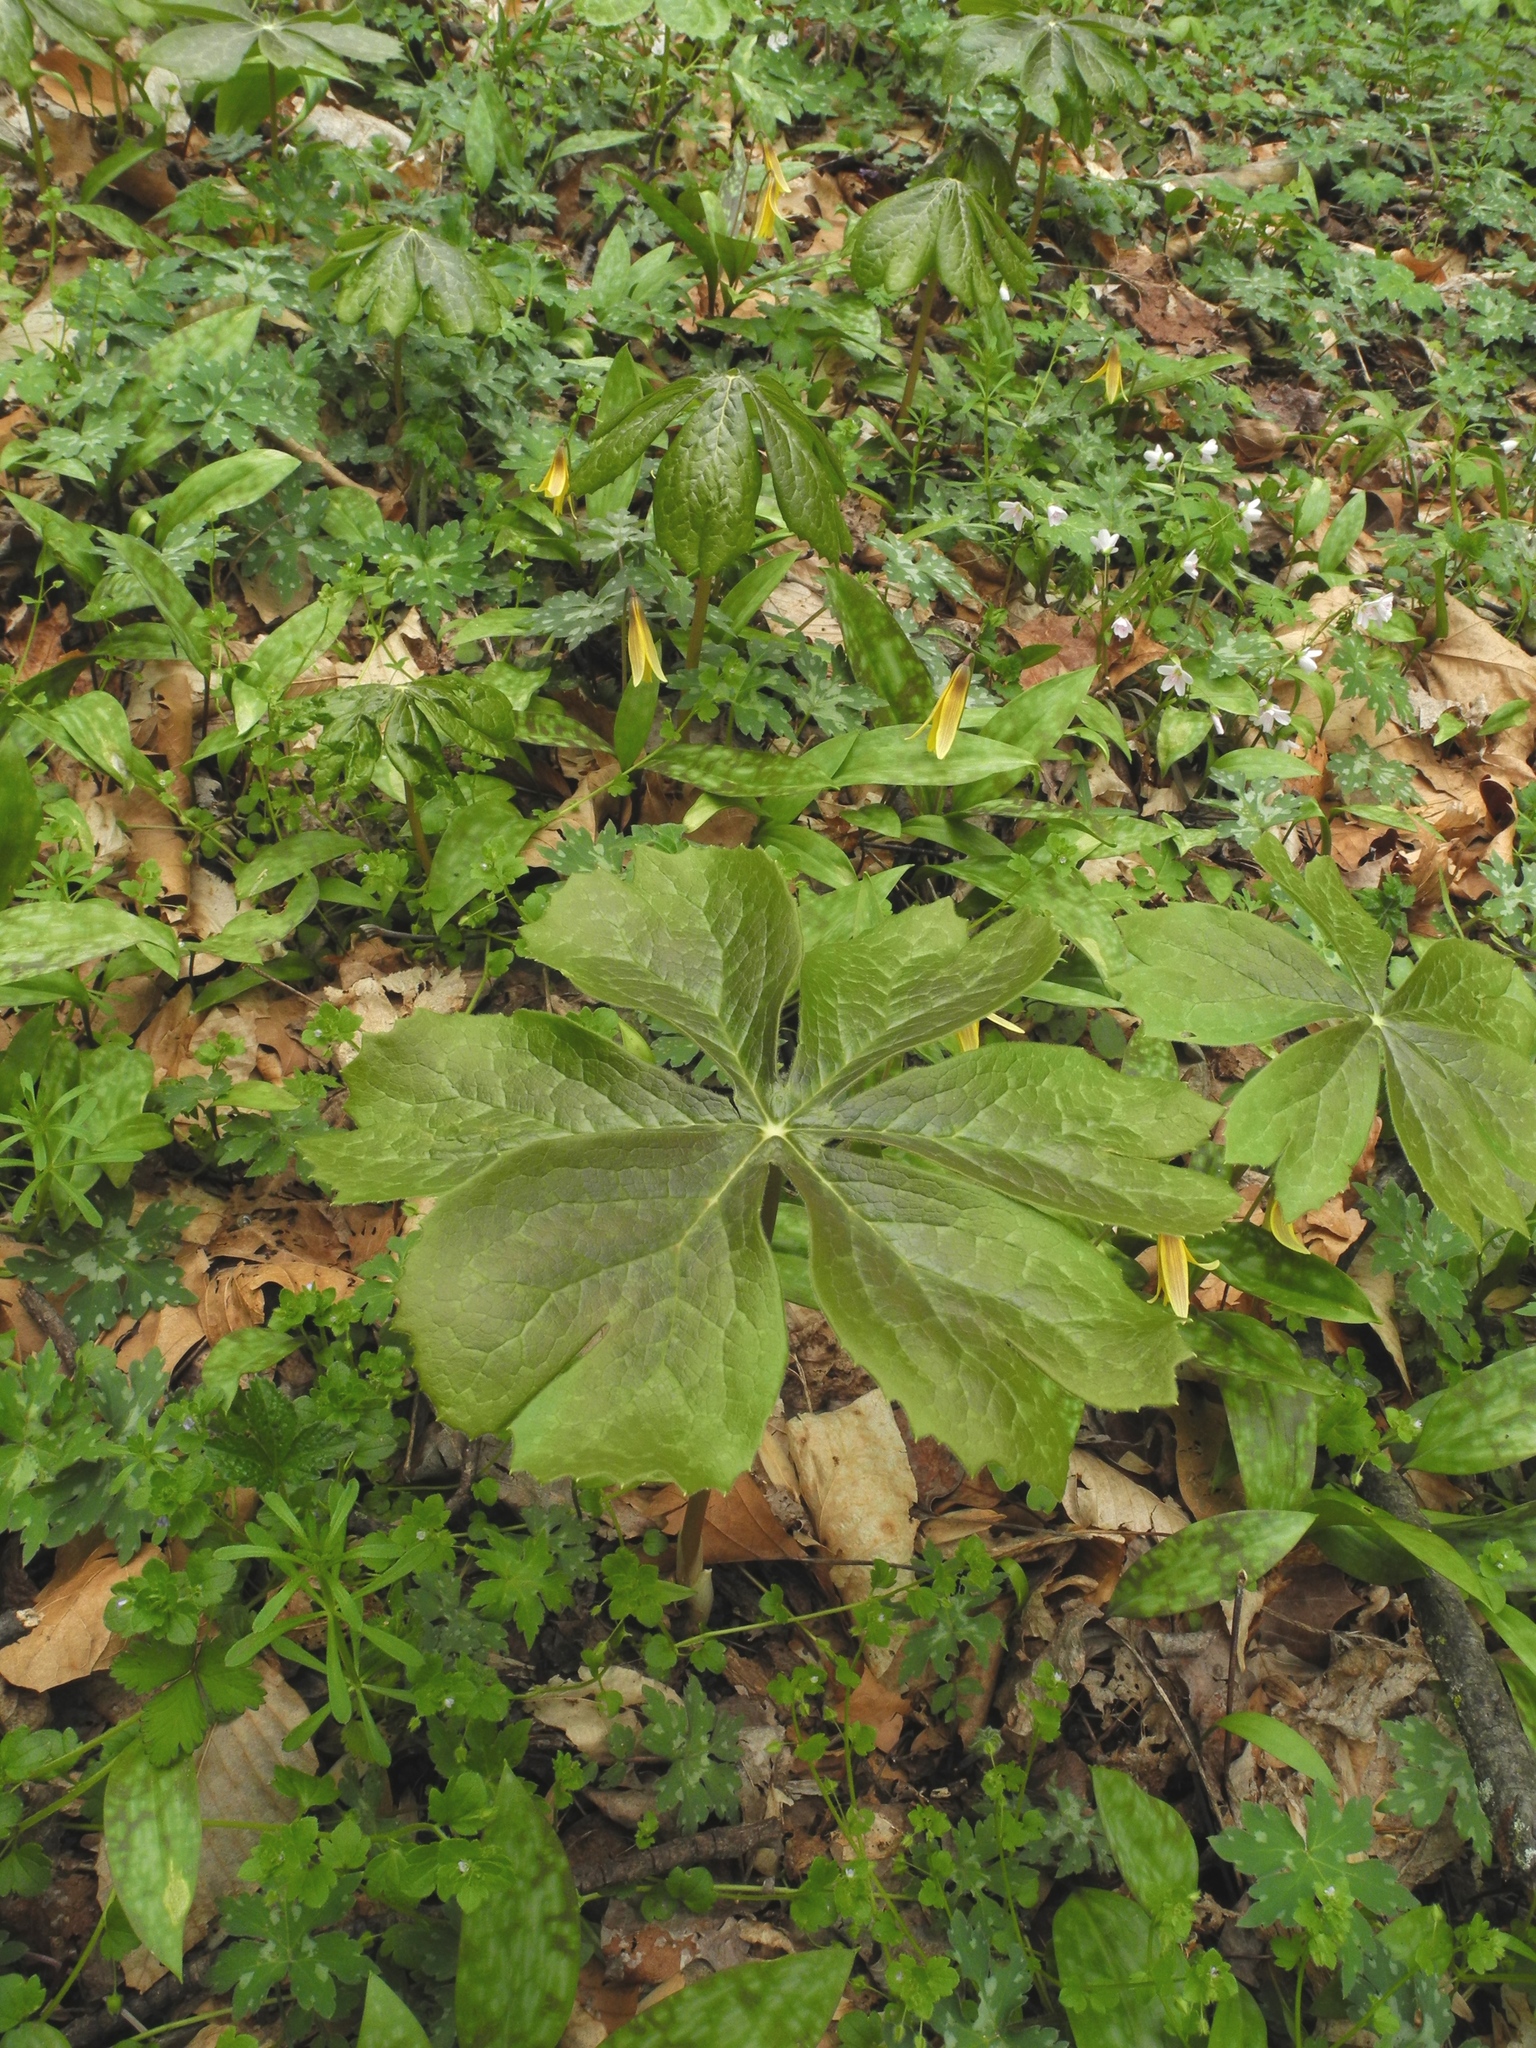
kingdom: Plantae
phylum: Tracheophyta
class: Magnoliopsida
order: Ranunculales
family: Berberidaceae
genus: Podophyllum
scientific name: Podophyllum peltatum
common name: Wild mandrake
